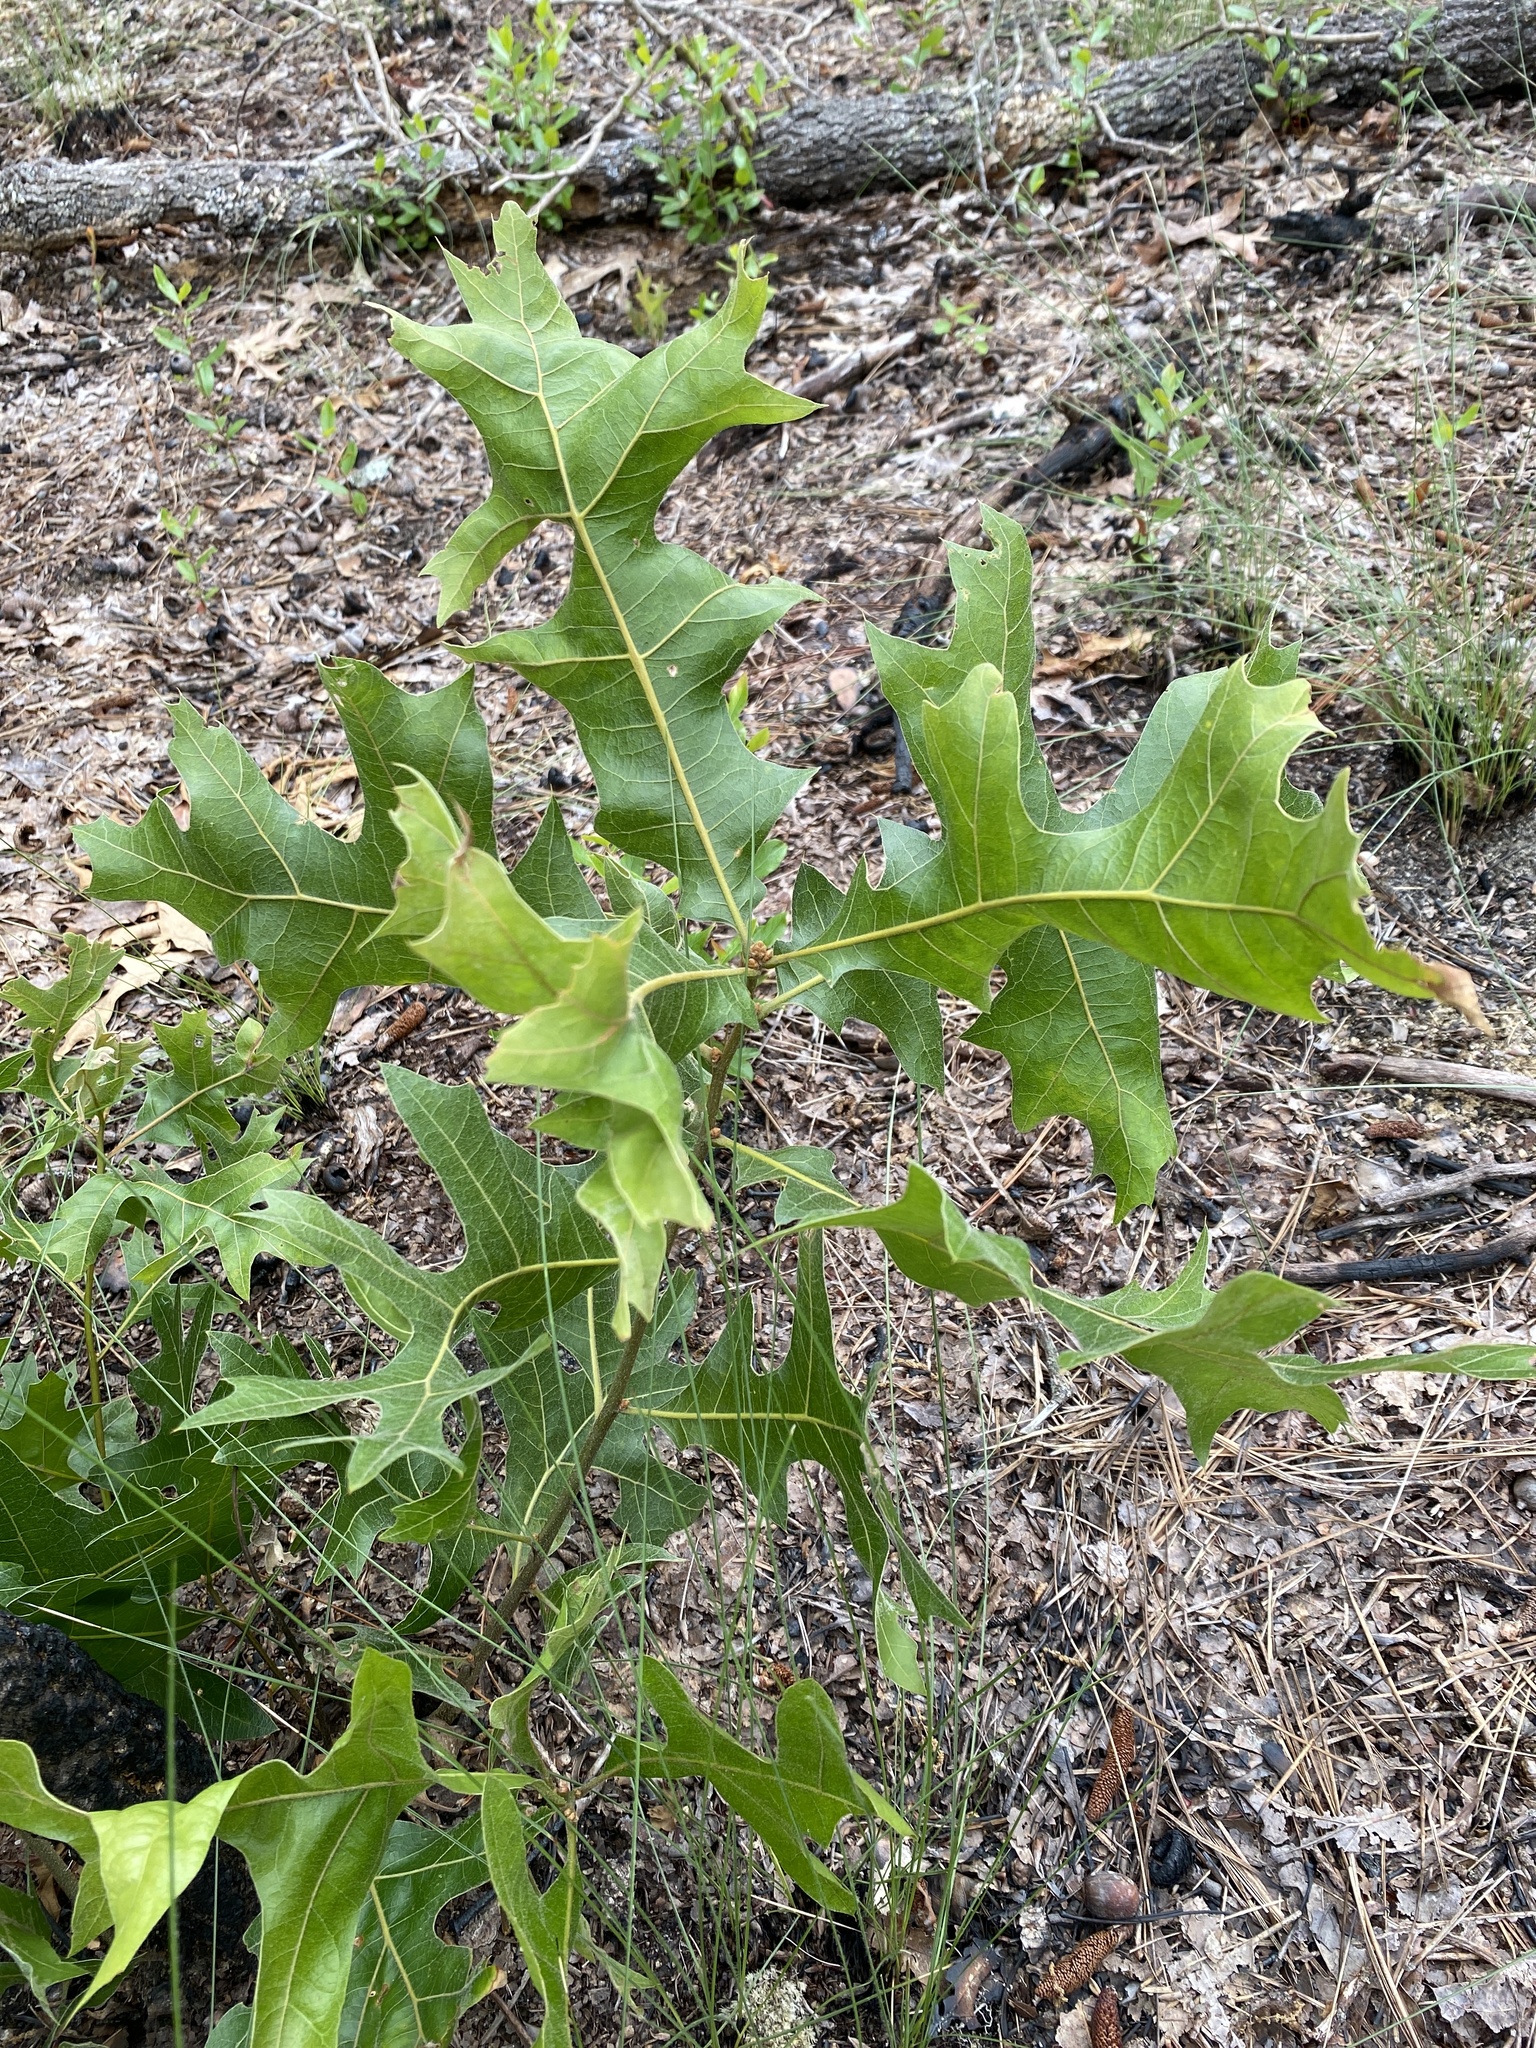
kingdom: Plantae
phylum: Tracheophyta
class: Magnoliopsida
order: Fagales
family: Fagaceae
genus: Quercus
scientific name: Quercus laevis
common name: Turkey oak
